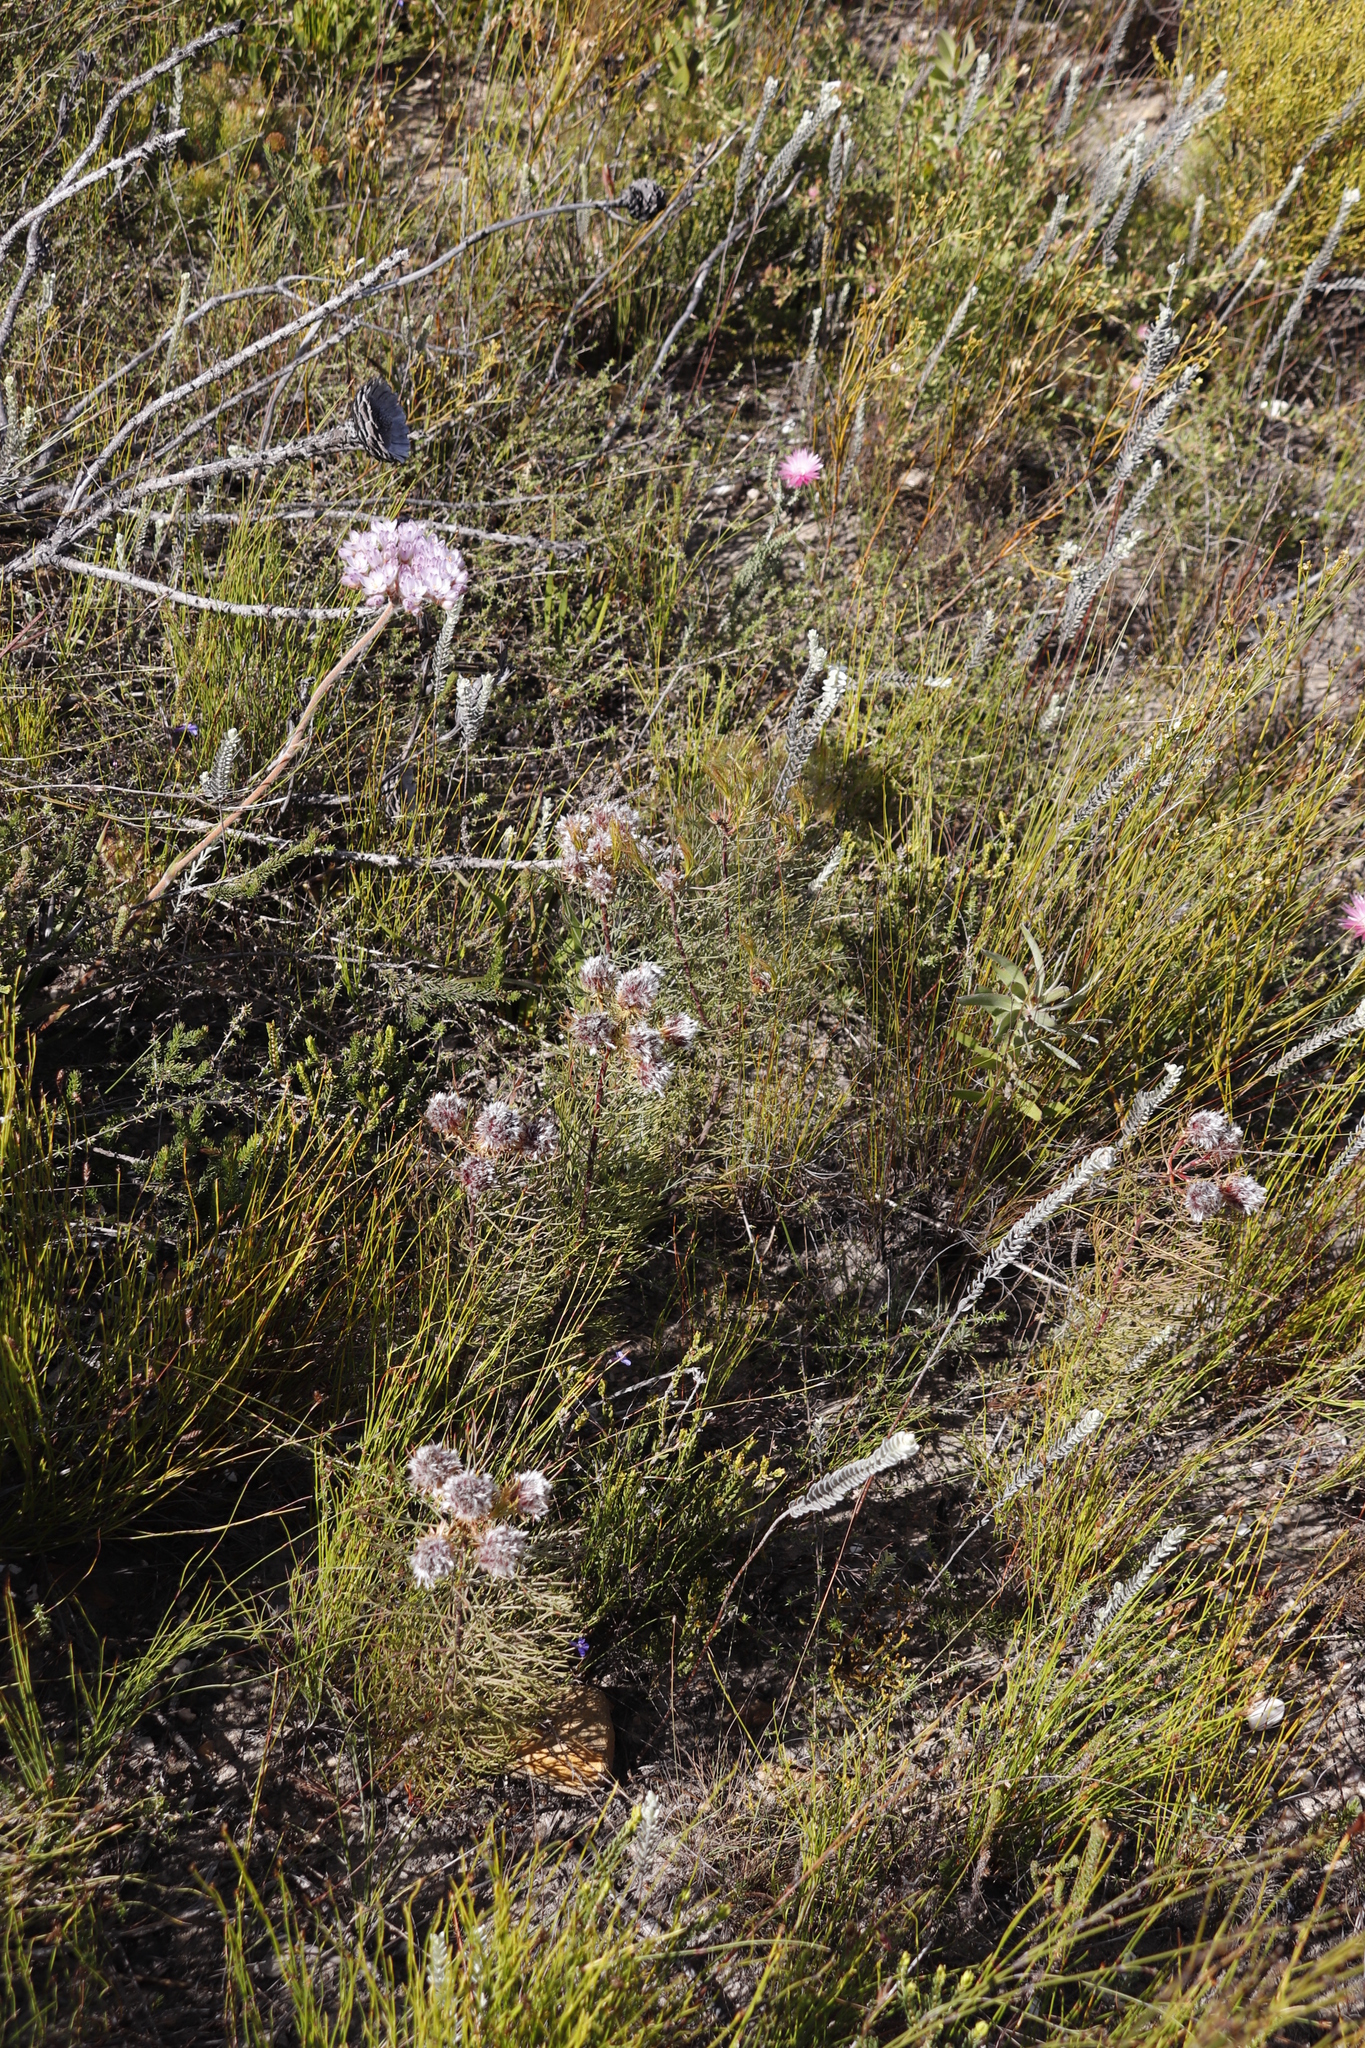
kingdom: Plantae
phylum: Tracheophyta
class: Magnoliopsida
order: Proteales
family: Proteaceae
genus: Serruria
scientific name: Serruria phylicoides
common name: Bearded spiderhead
